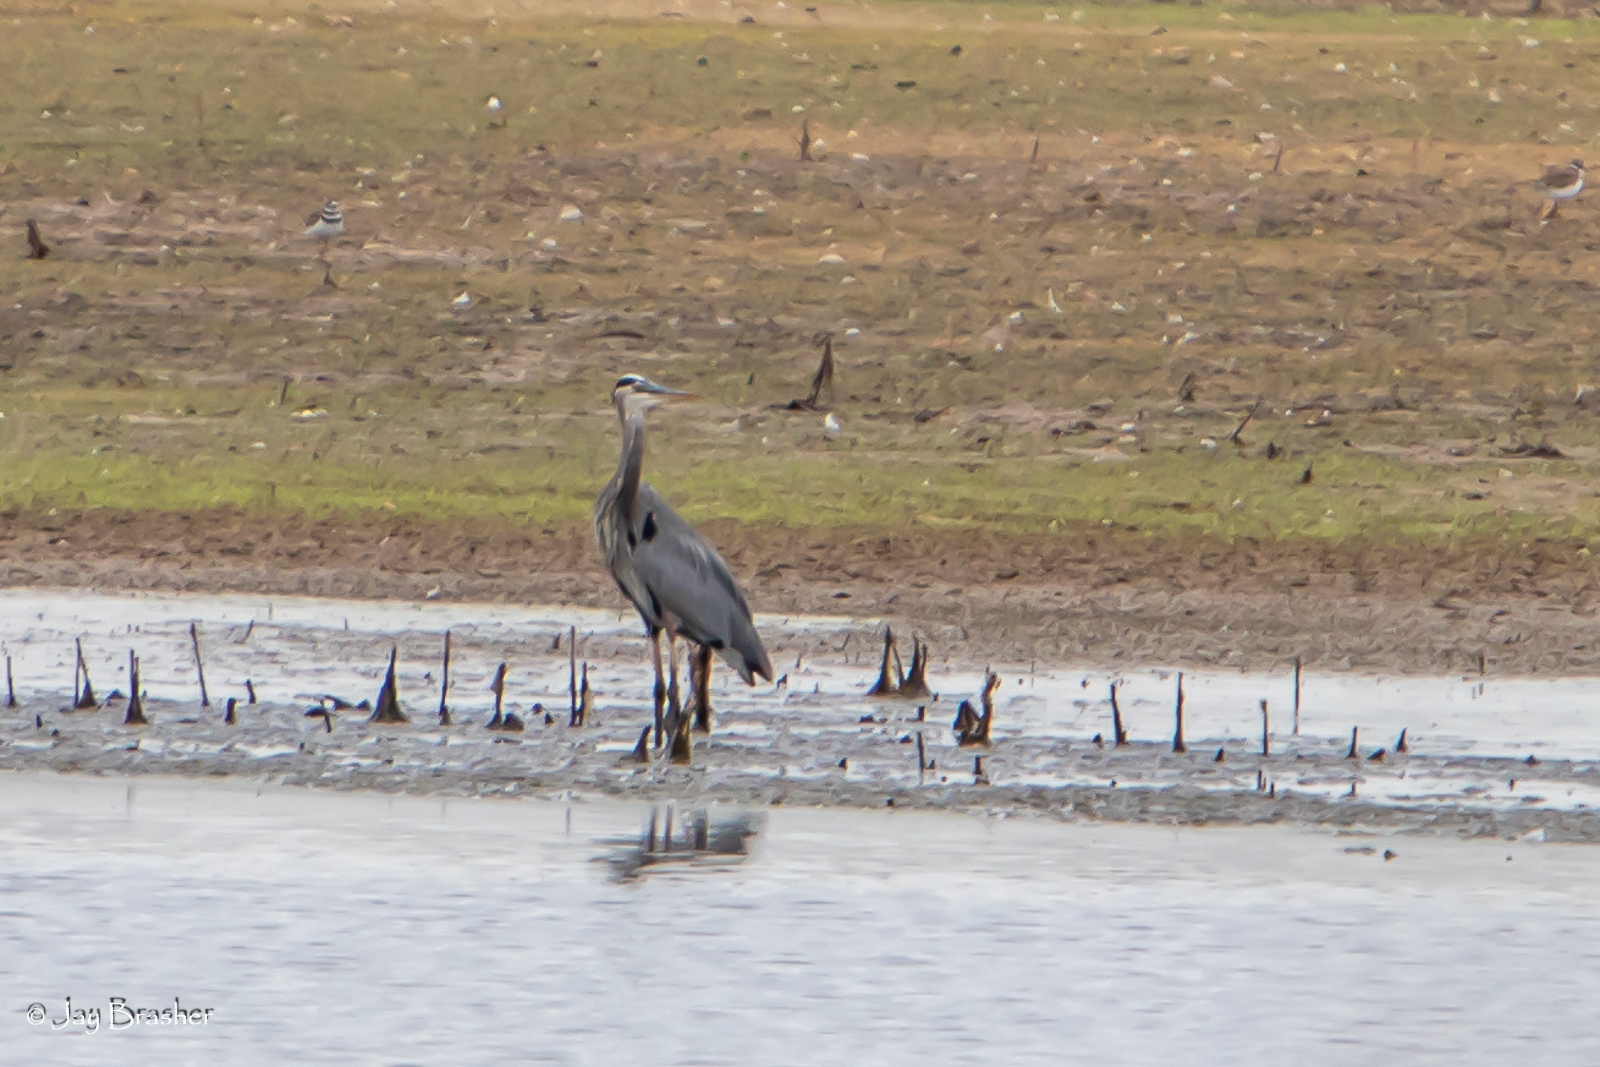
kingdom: Animalia
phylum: Chordata
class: Aves
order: Pelecaniformes
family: Ardeidae
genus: Ardea
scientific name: Ardea herodias
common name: Great blue heron
